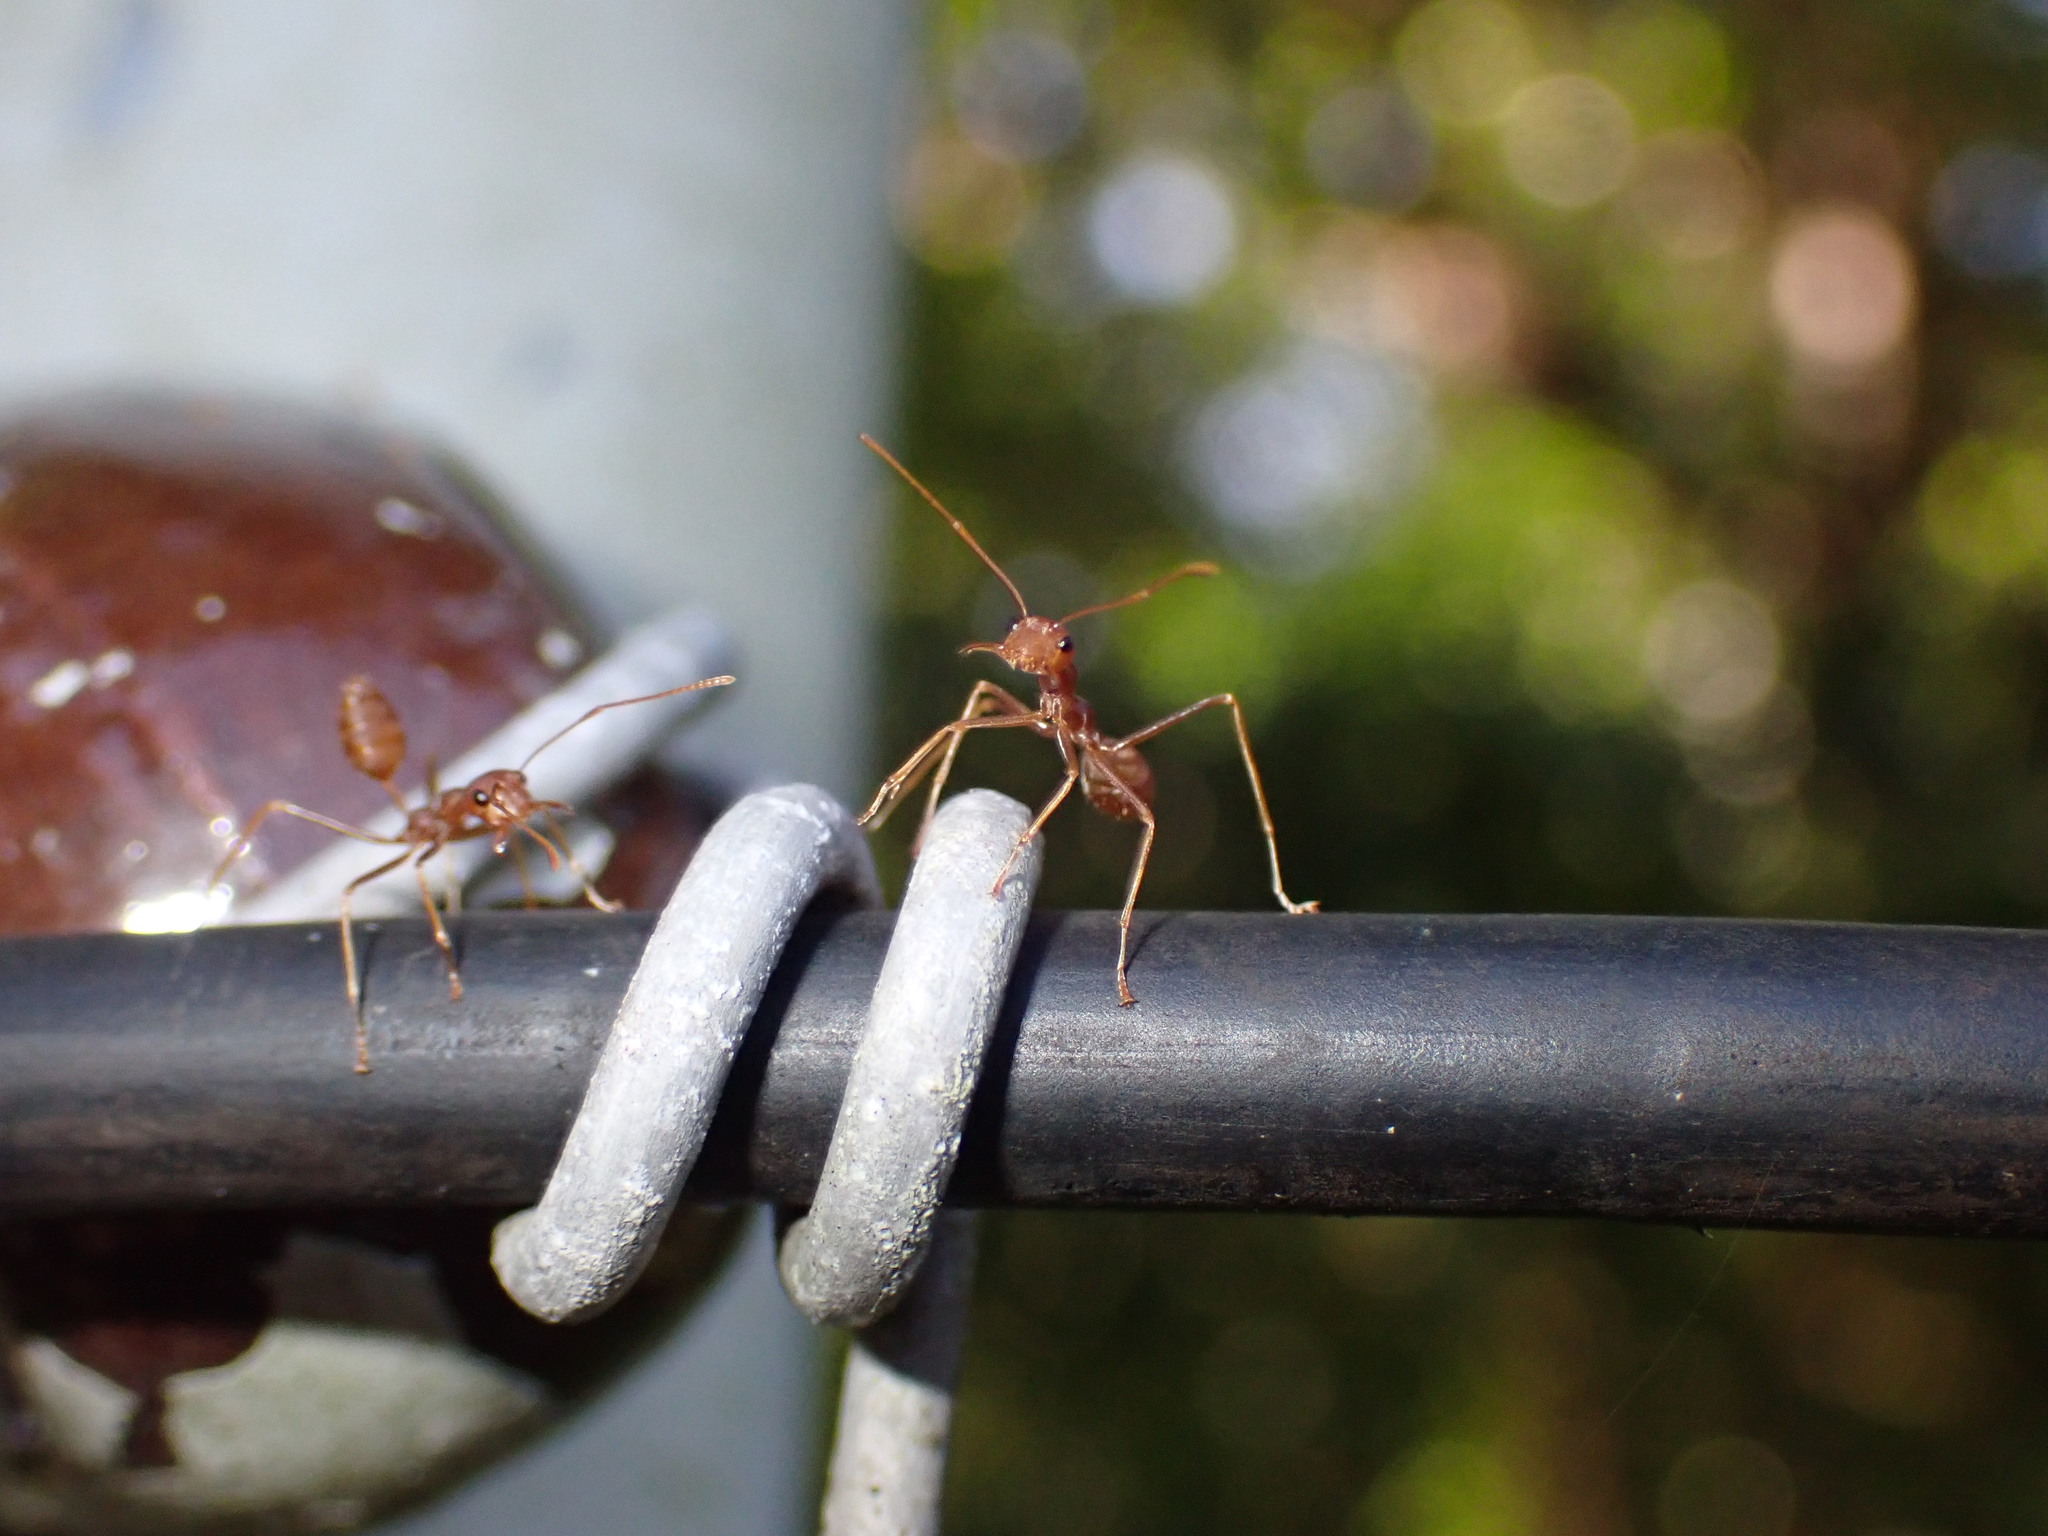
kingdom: Animalia
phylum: Arthropoda
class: Insecta
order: Hymenoptera
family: Formicidae
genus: Oecophylla
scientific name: Oecophylla smaragdina
